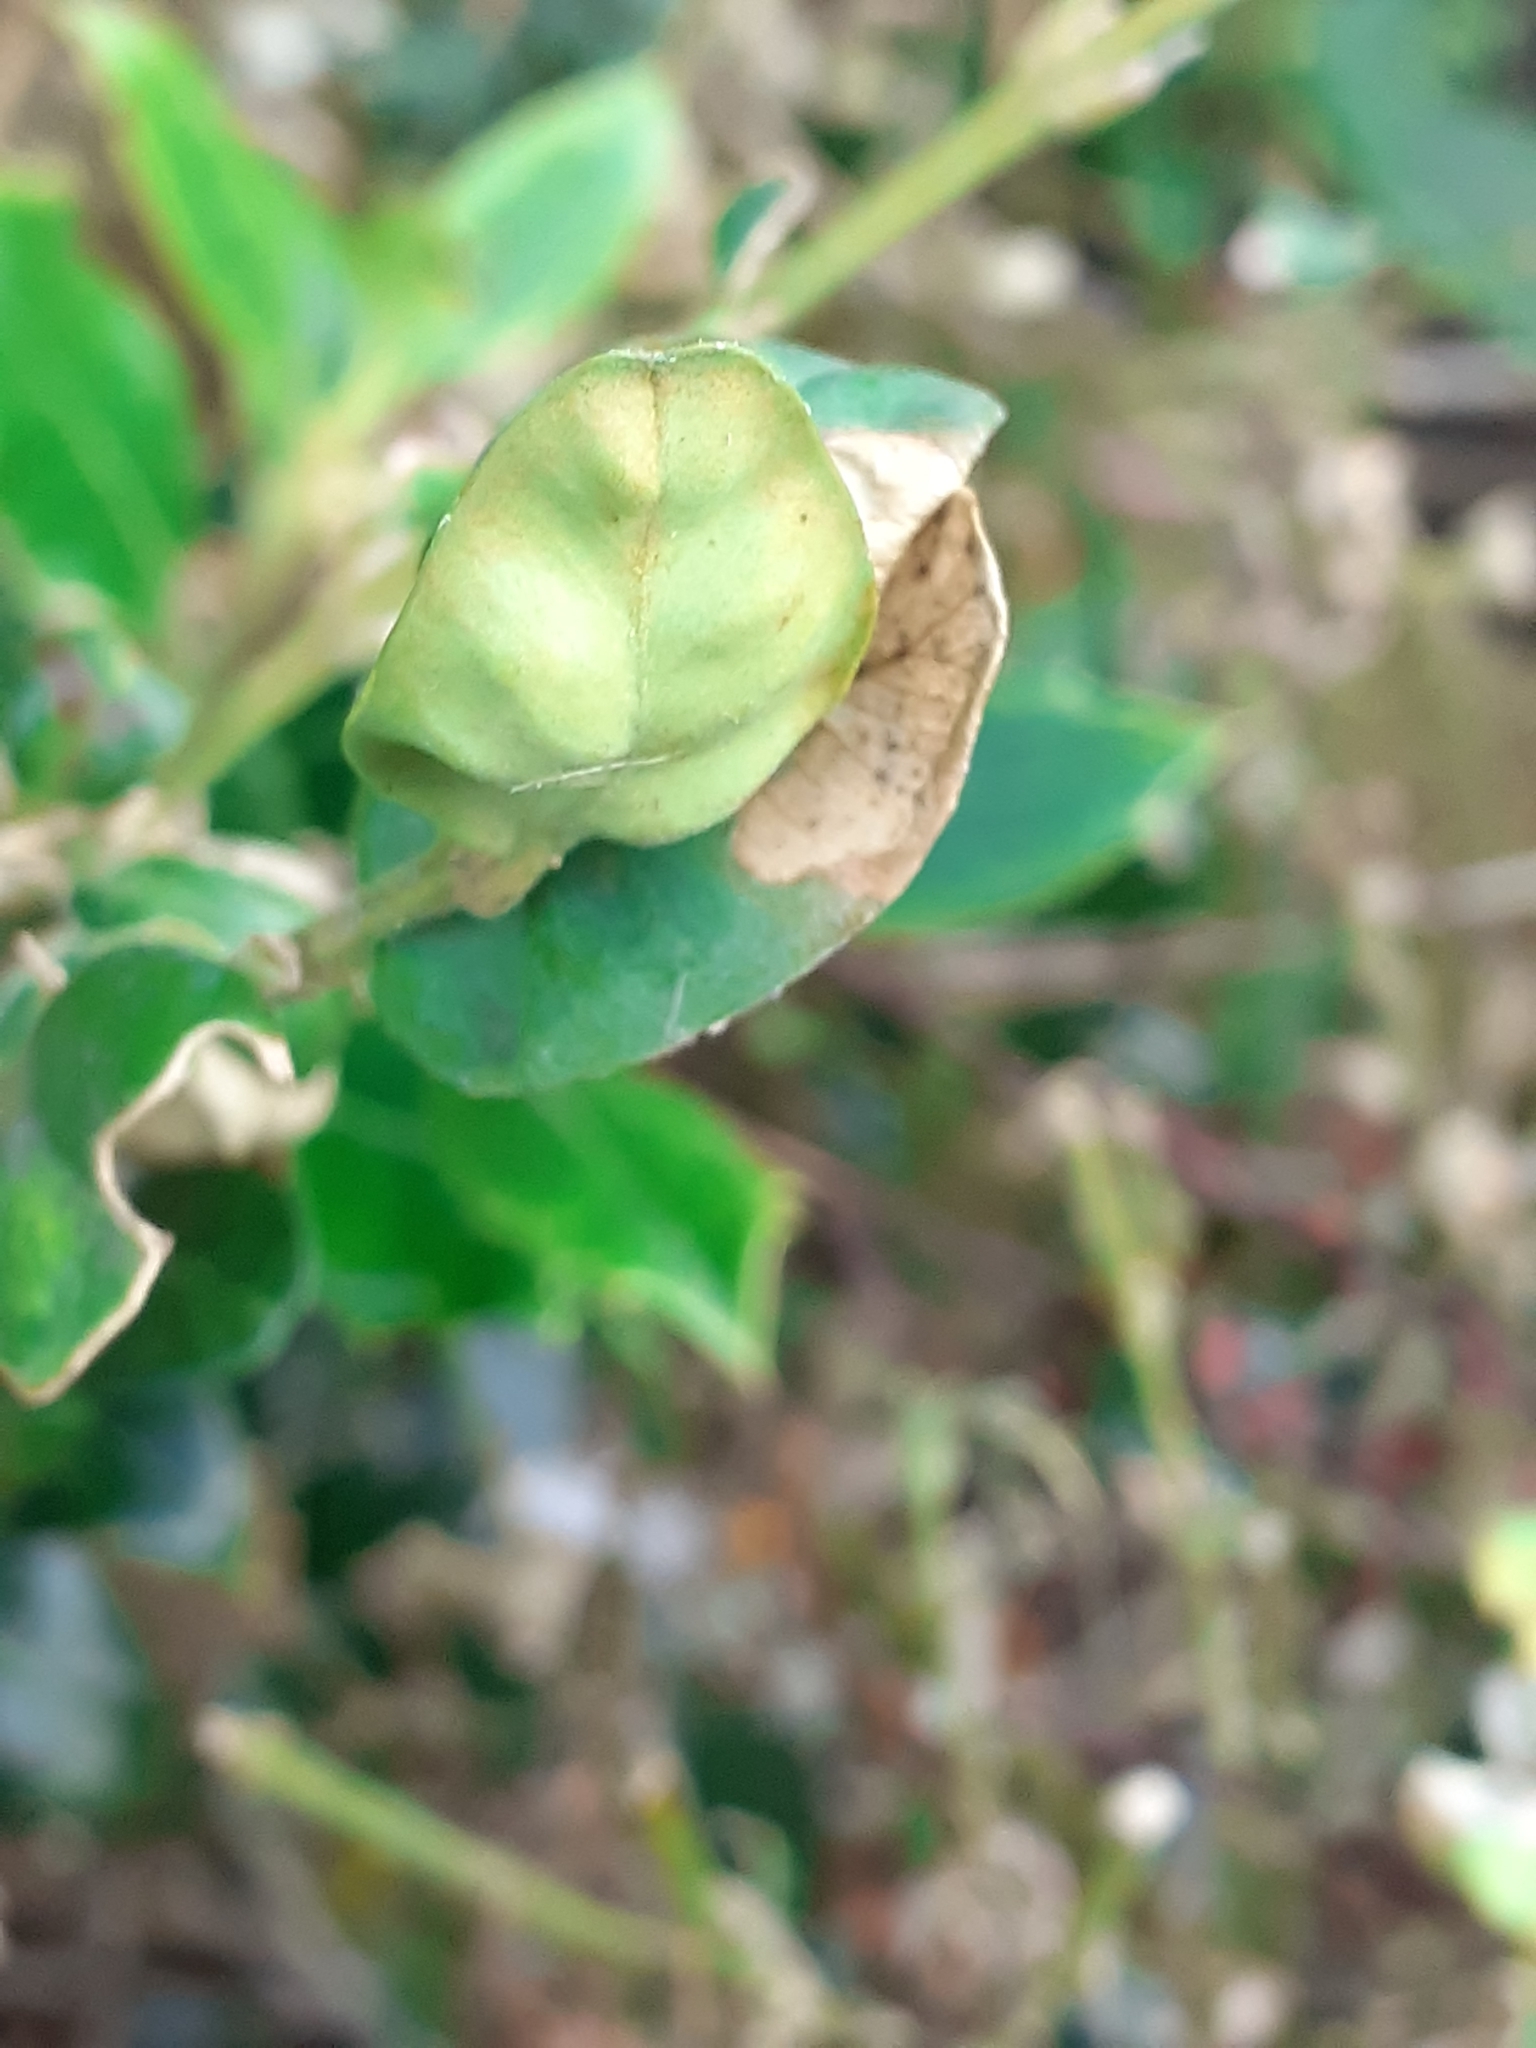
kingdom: Animalia
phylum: Arthropoda
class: Insecta
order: Hemiptera
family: Psyllidae
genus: Psylla
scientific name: Psylla buxi
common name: Boxwood psyllid
